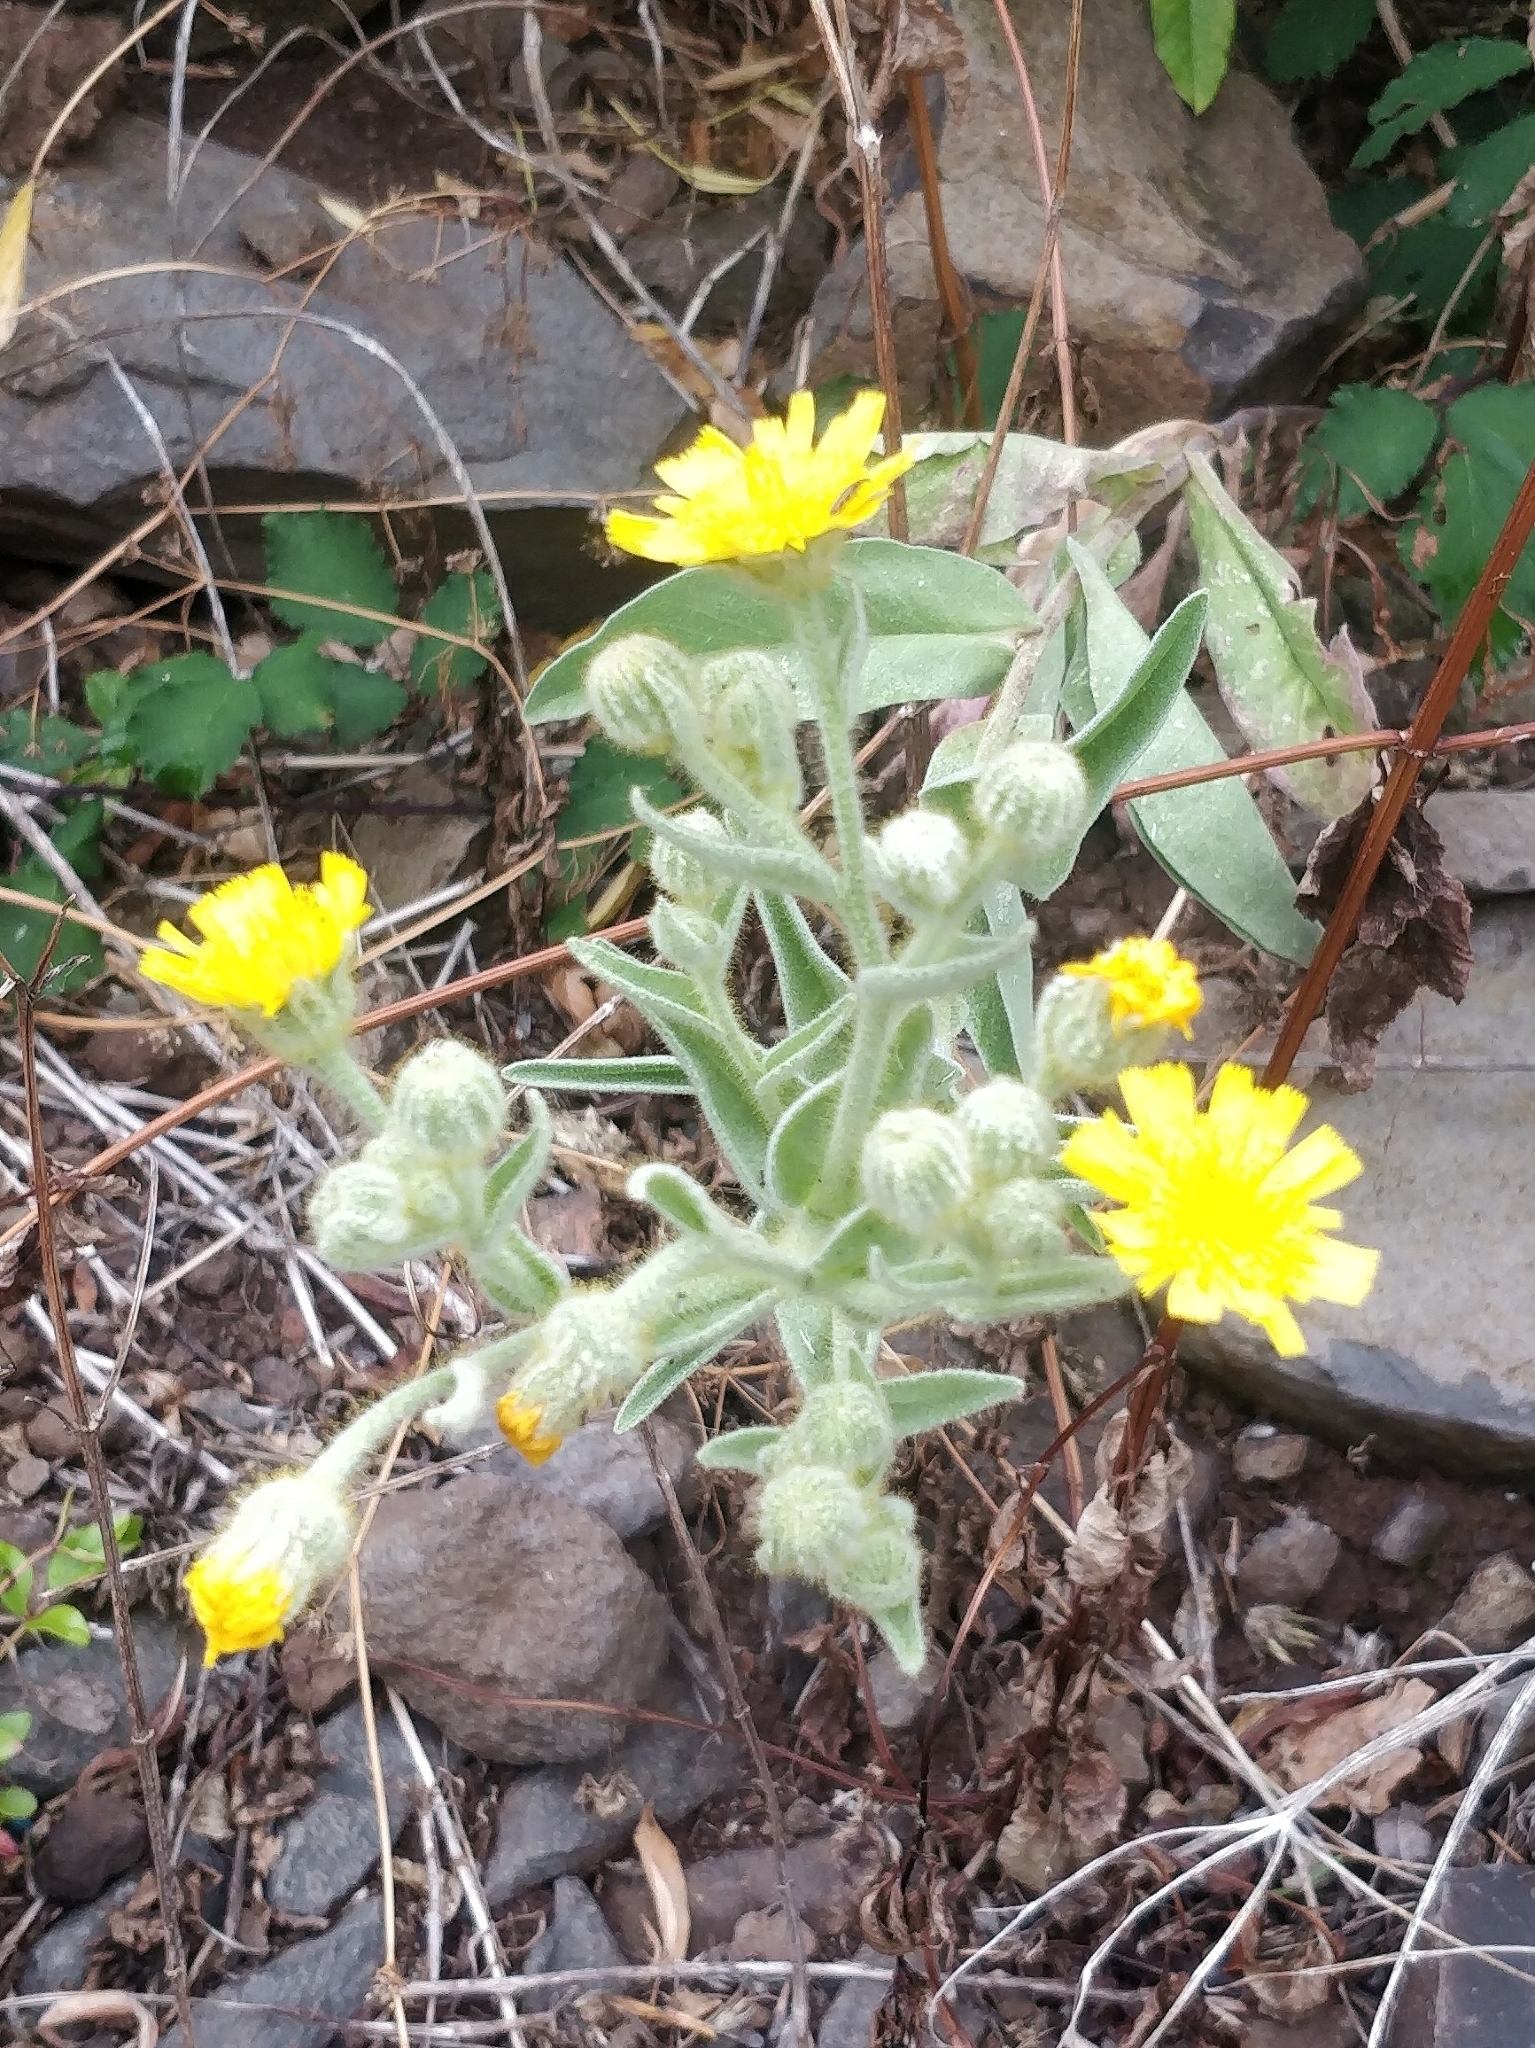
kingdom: Plantae
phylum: Tracheophyta
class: Magnoliopsida
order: Asterales
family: Asteraceae
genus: Andryala
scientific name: Andryala glandulosa
